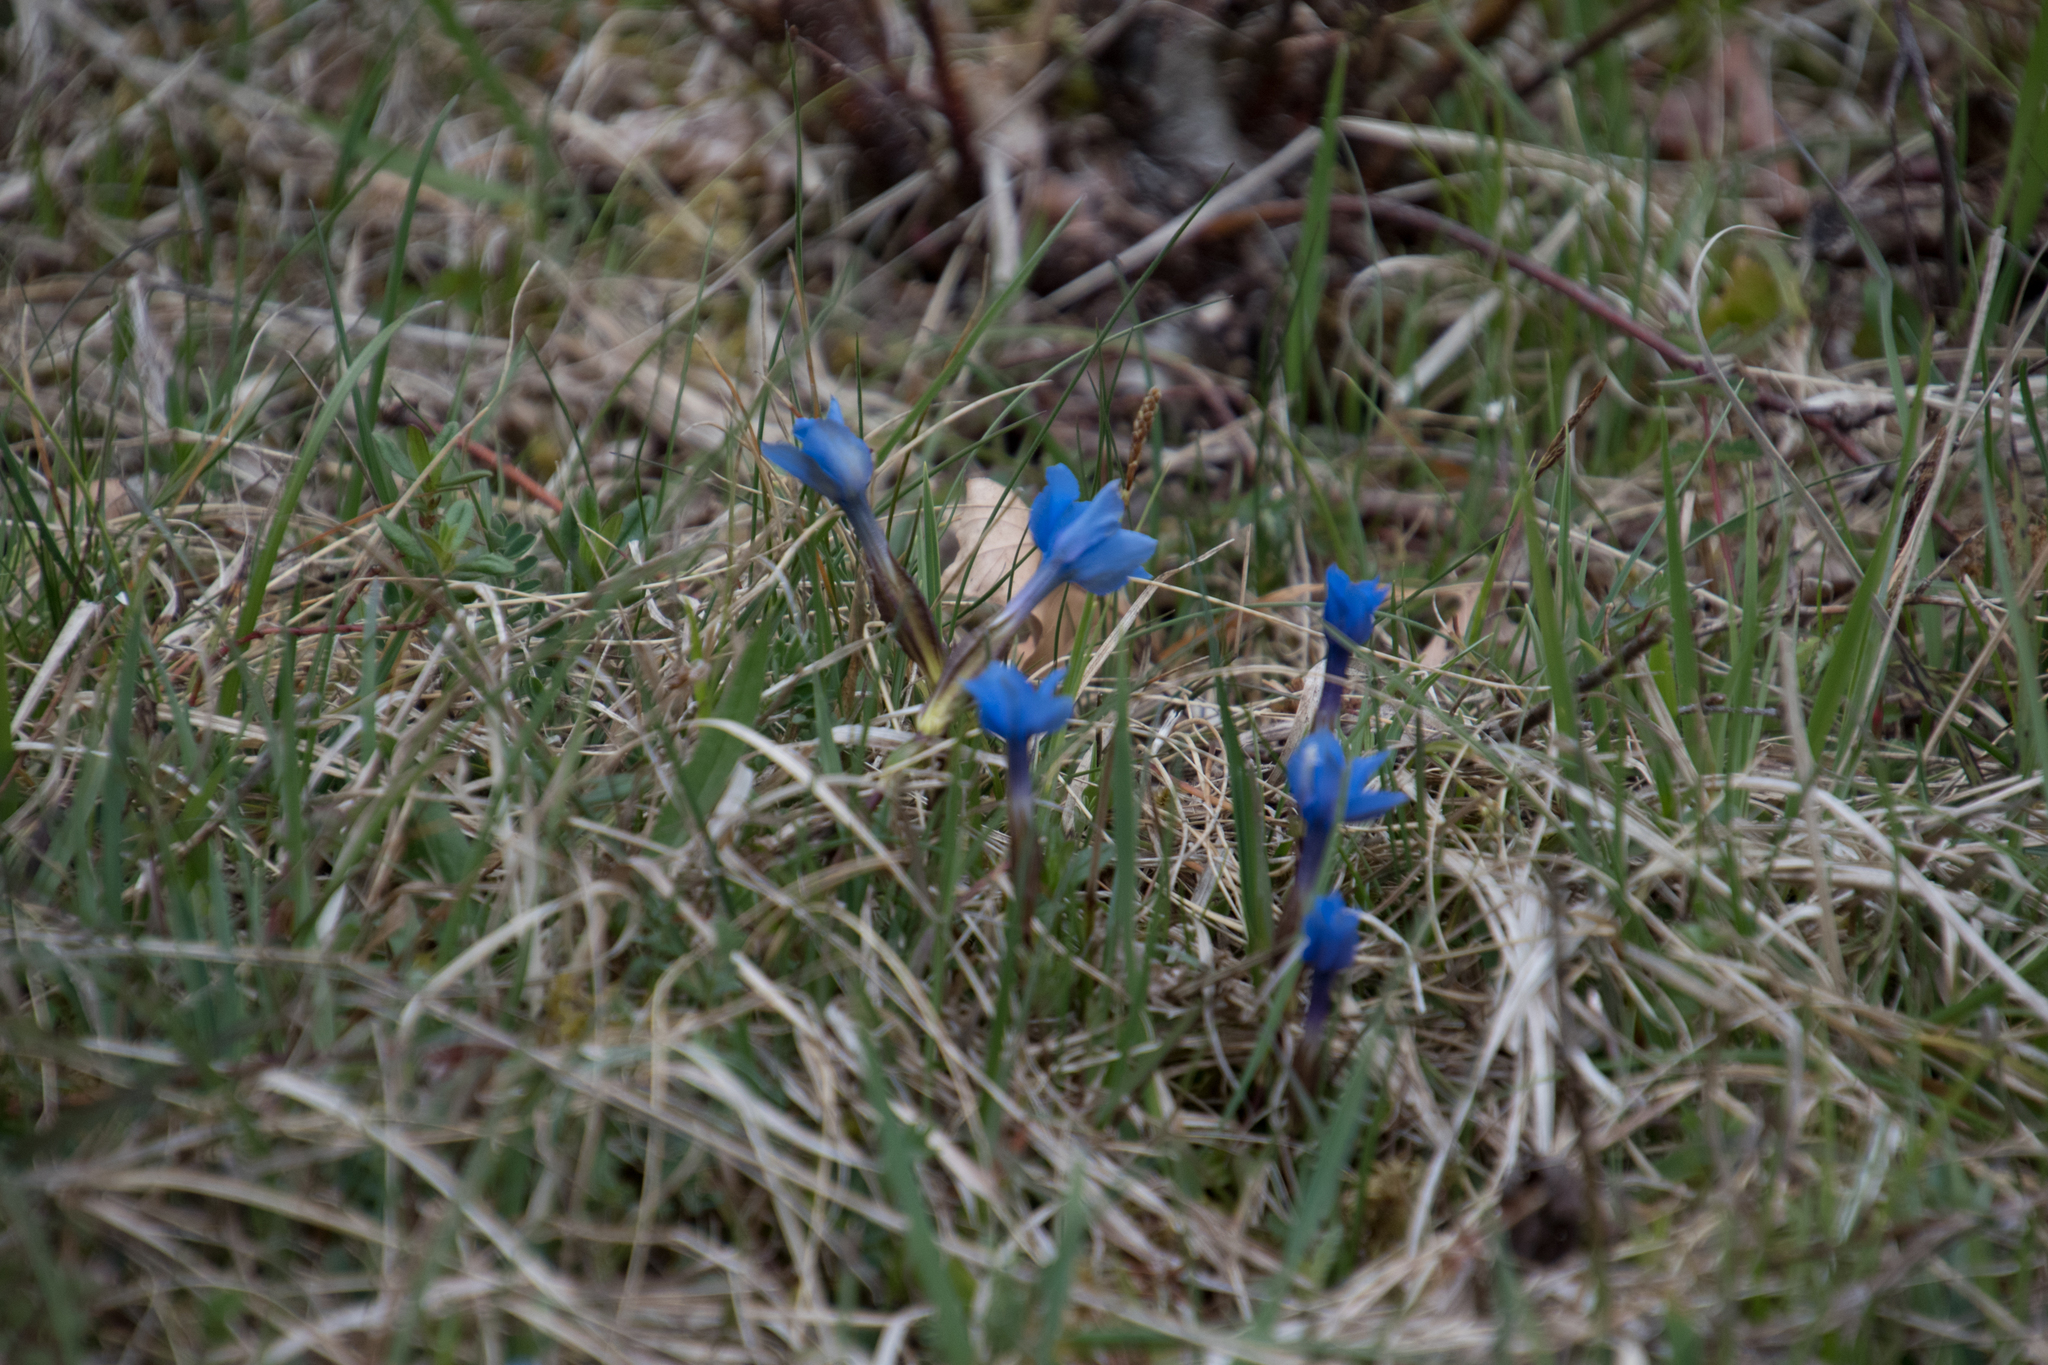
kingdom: Plantae
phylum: Tracheophyta
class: Magnoliopsida
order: Gentianales
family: Gentianaceae
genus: Gentiana
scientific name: Gentiana verna
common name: Spring gentian
